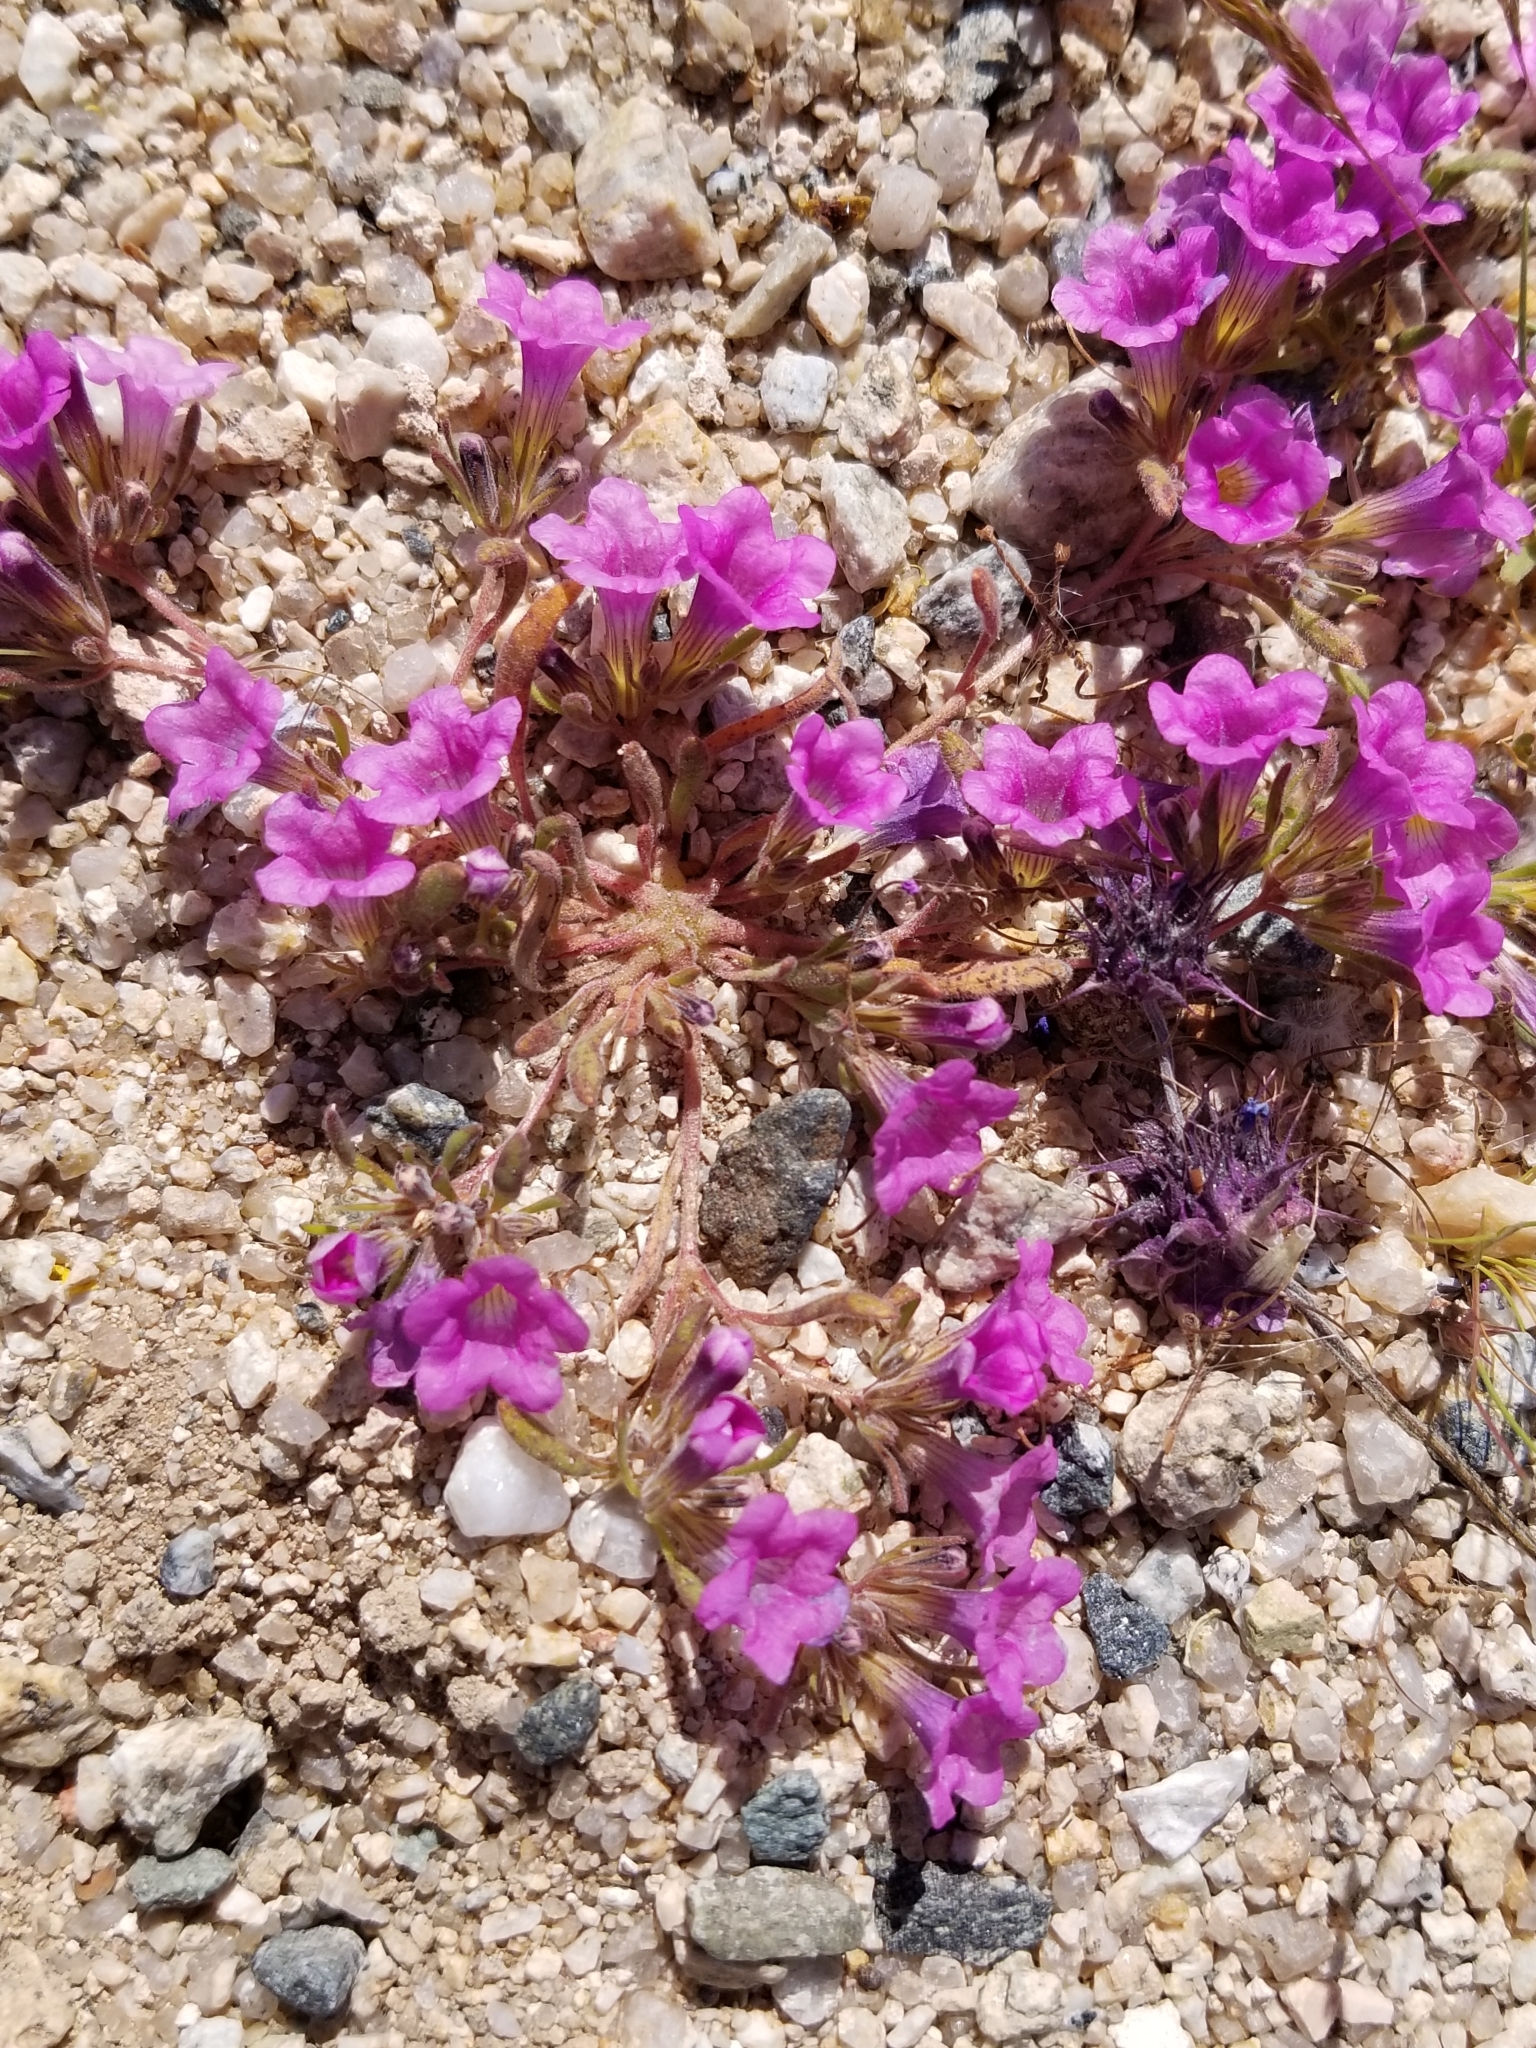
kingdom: Plantae
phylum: Tracheophyta
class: Magnoliopsida
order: Boraginales
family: Namaceae
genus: Nama
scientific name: Nama demissa
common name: Leafy nama
